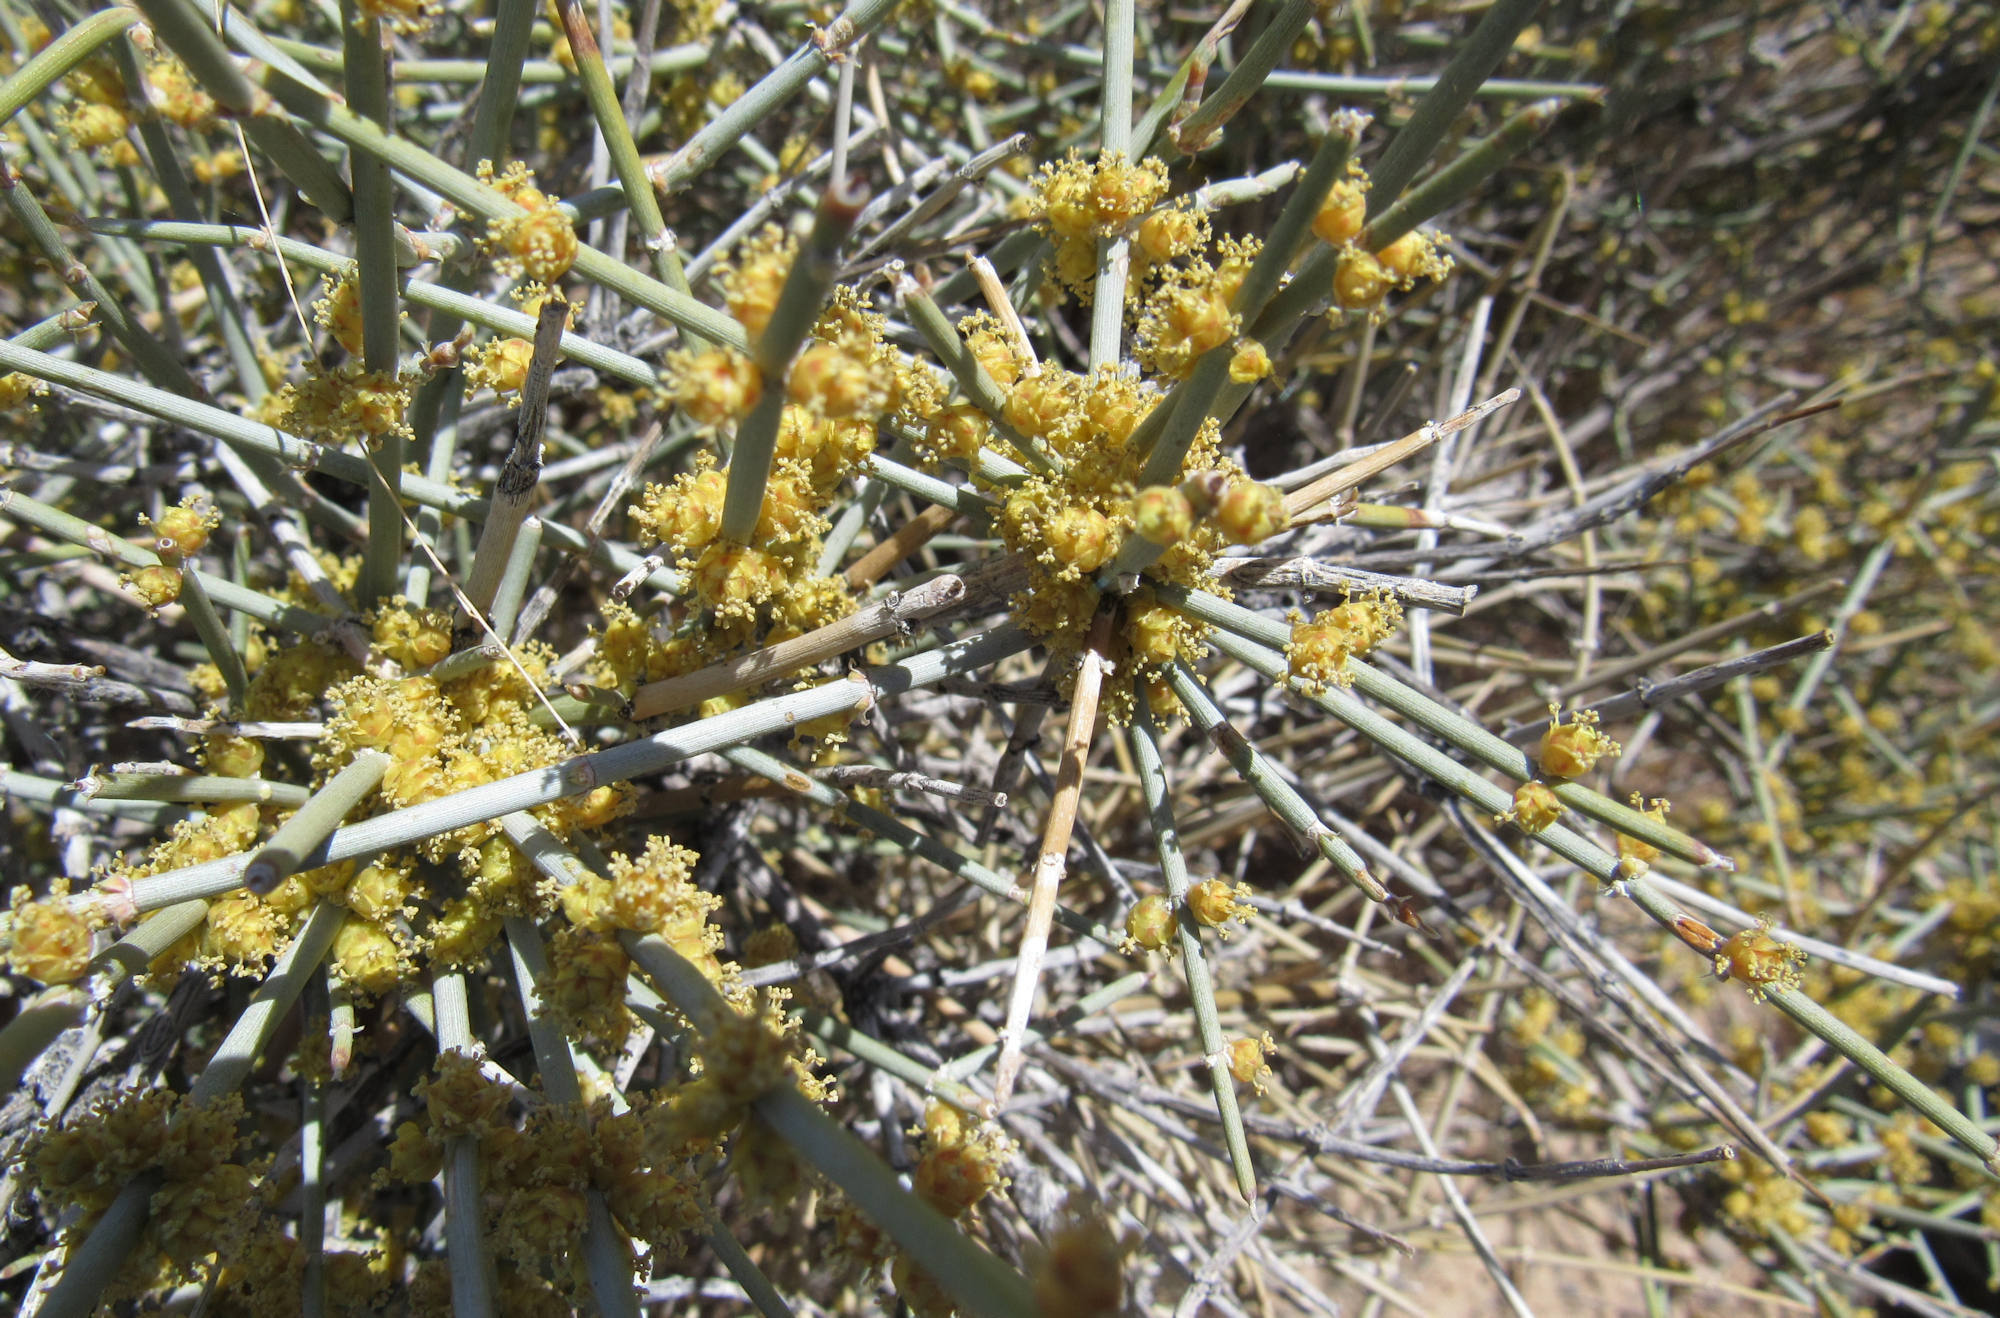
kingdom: Plantae
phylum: Tracheophyta
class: Gnetopsida
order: Ephedrales
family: Ephedraceae
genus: Ephedra
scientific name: Ephedra torreyana
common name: Torrey ephedra
